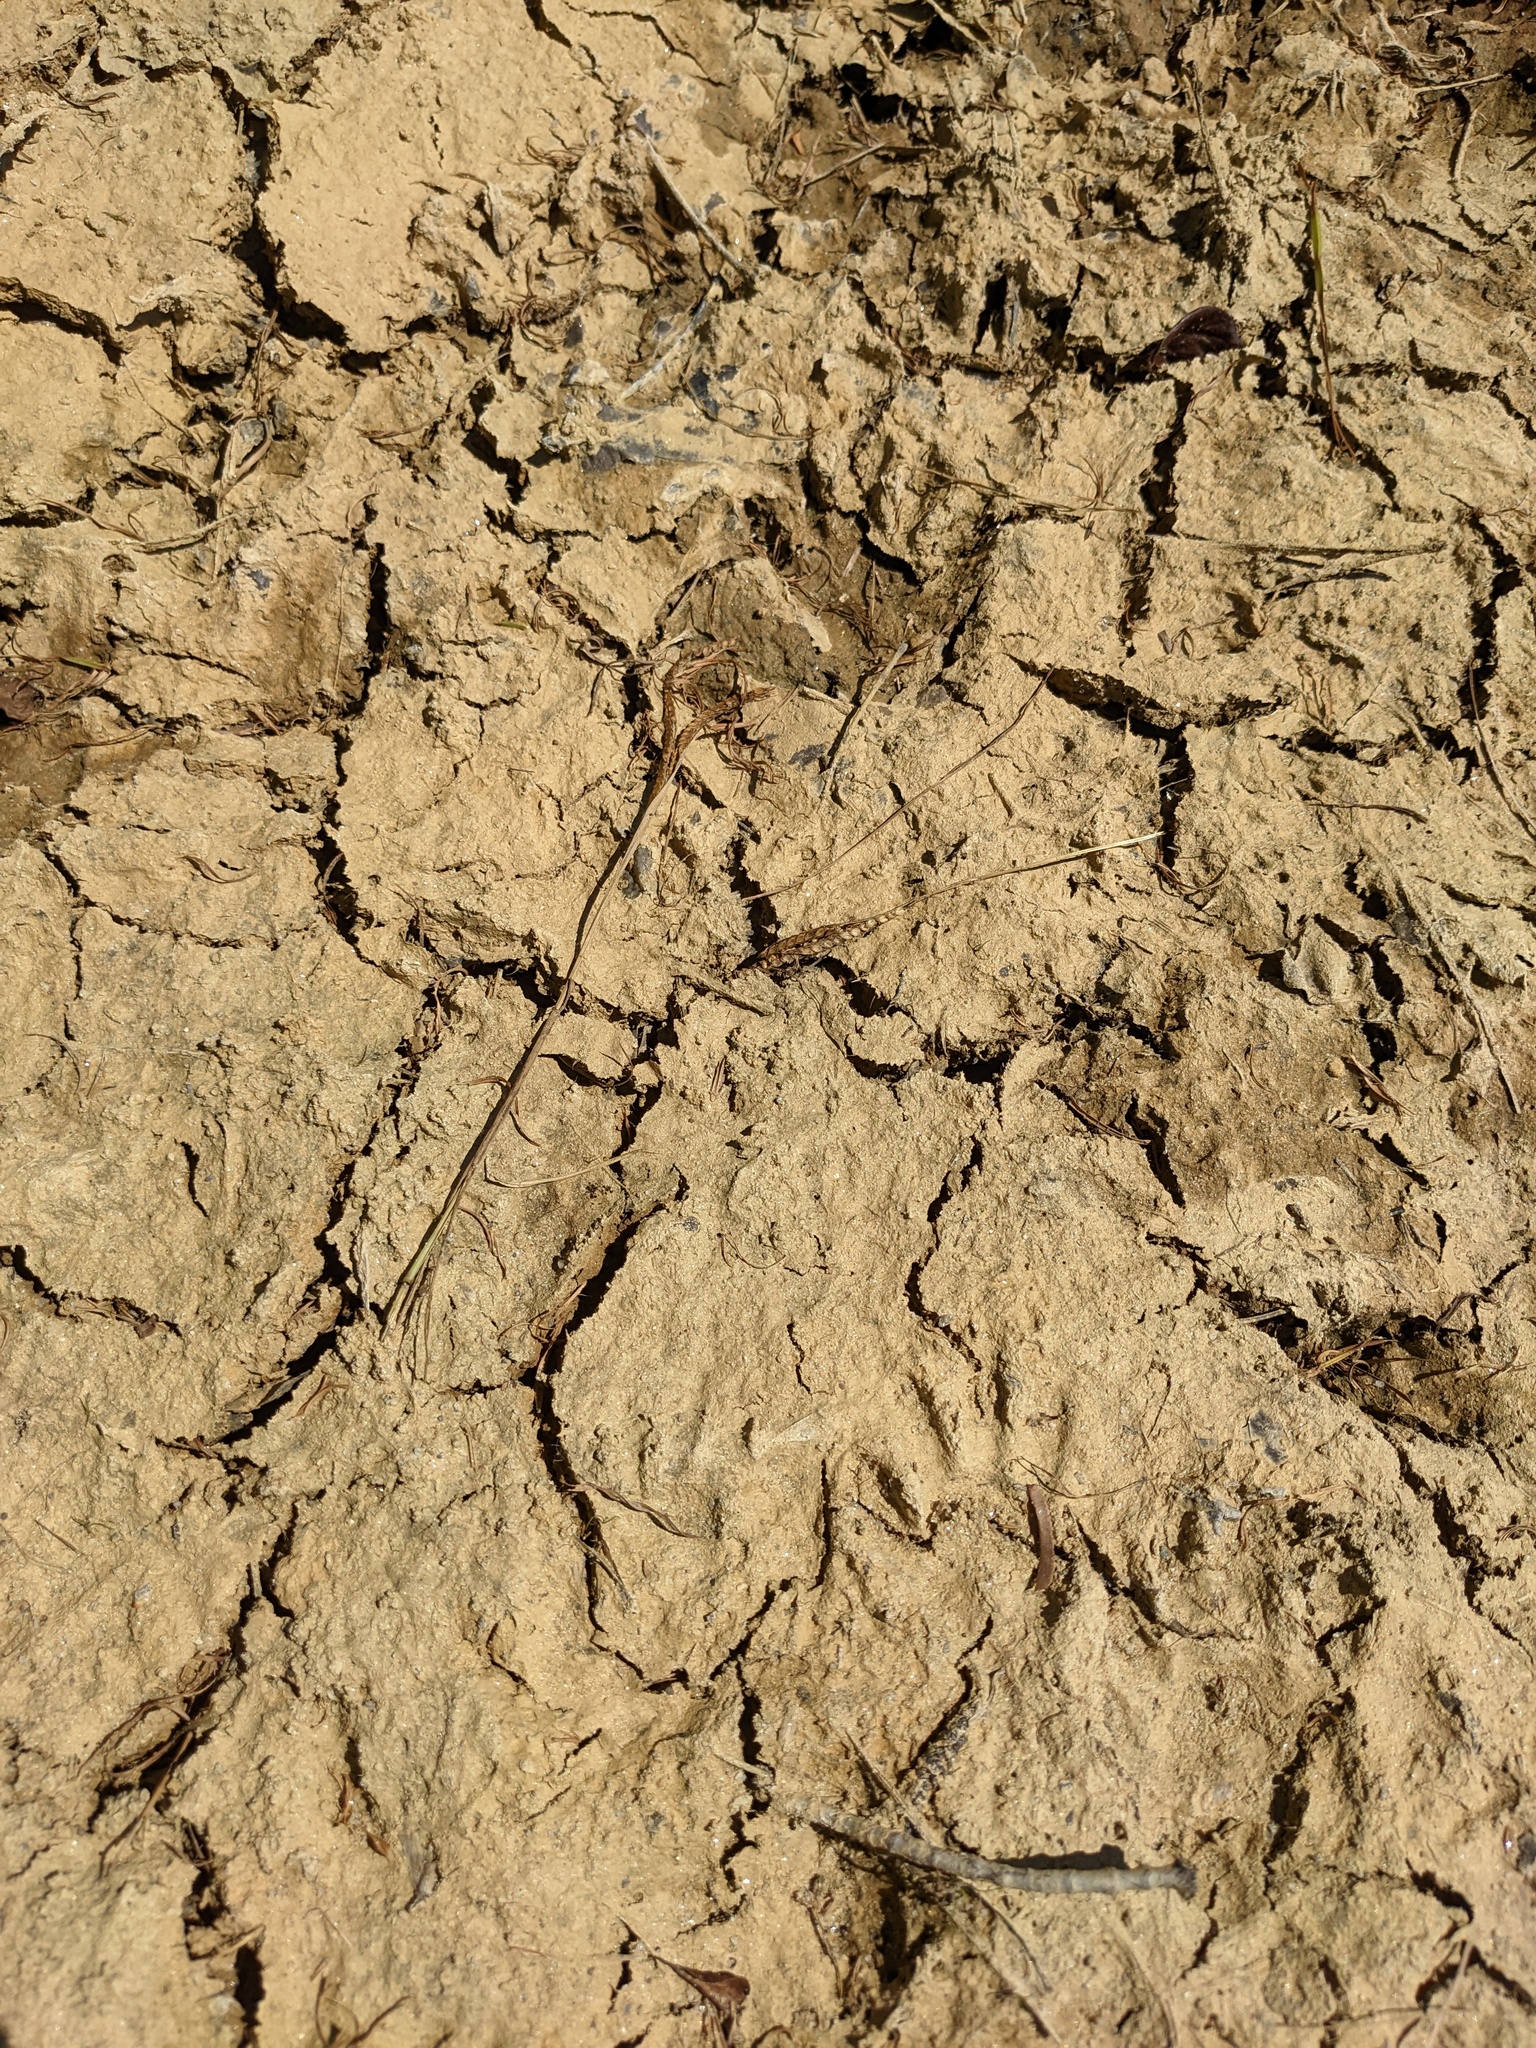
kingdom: Animalia
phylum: Chordata
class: Mammalia
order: Carnivora
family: Procyonidae
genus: Procyon
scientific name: Procyon lotor
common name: Raccoon
